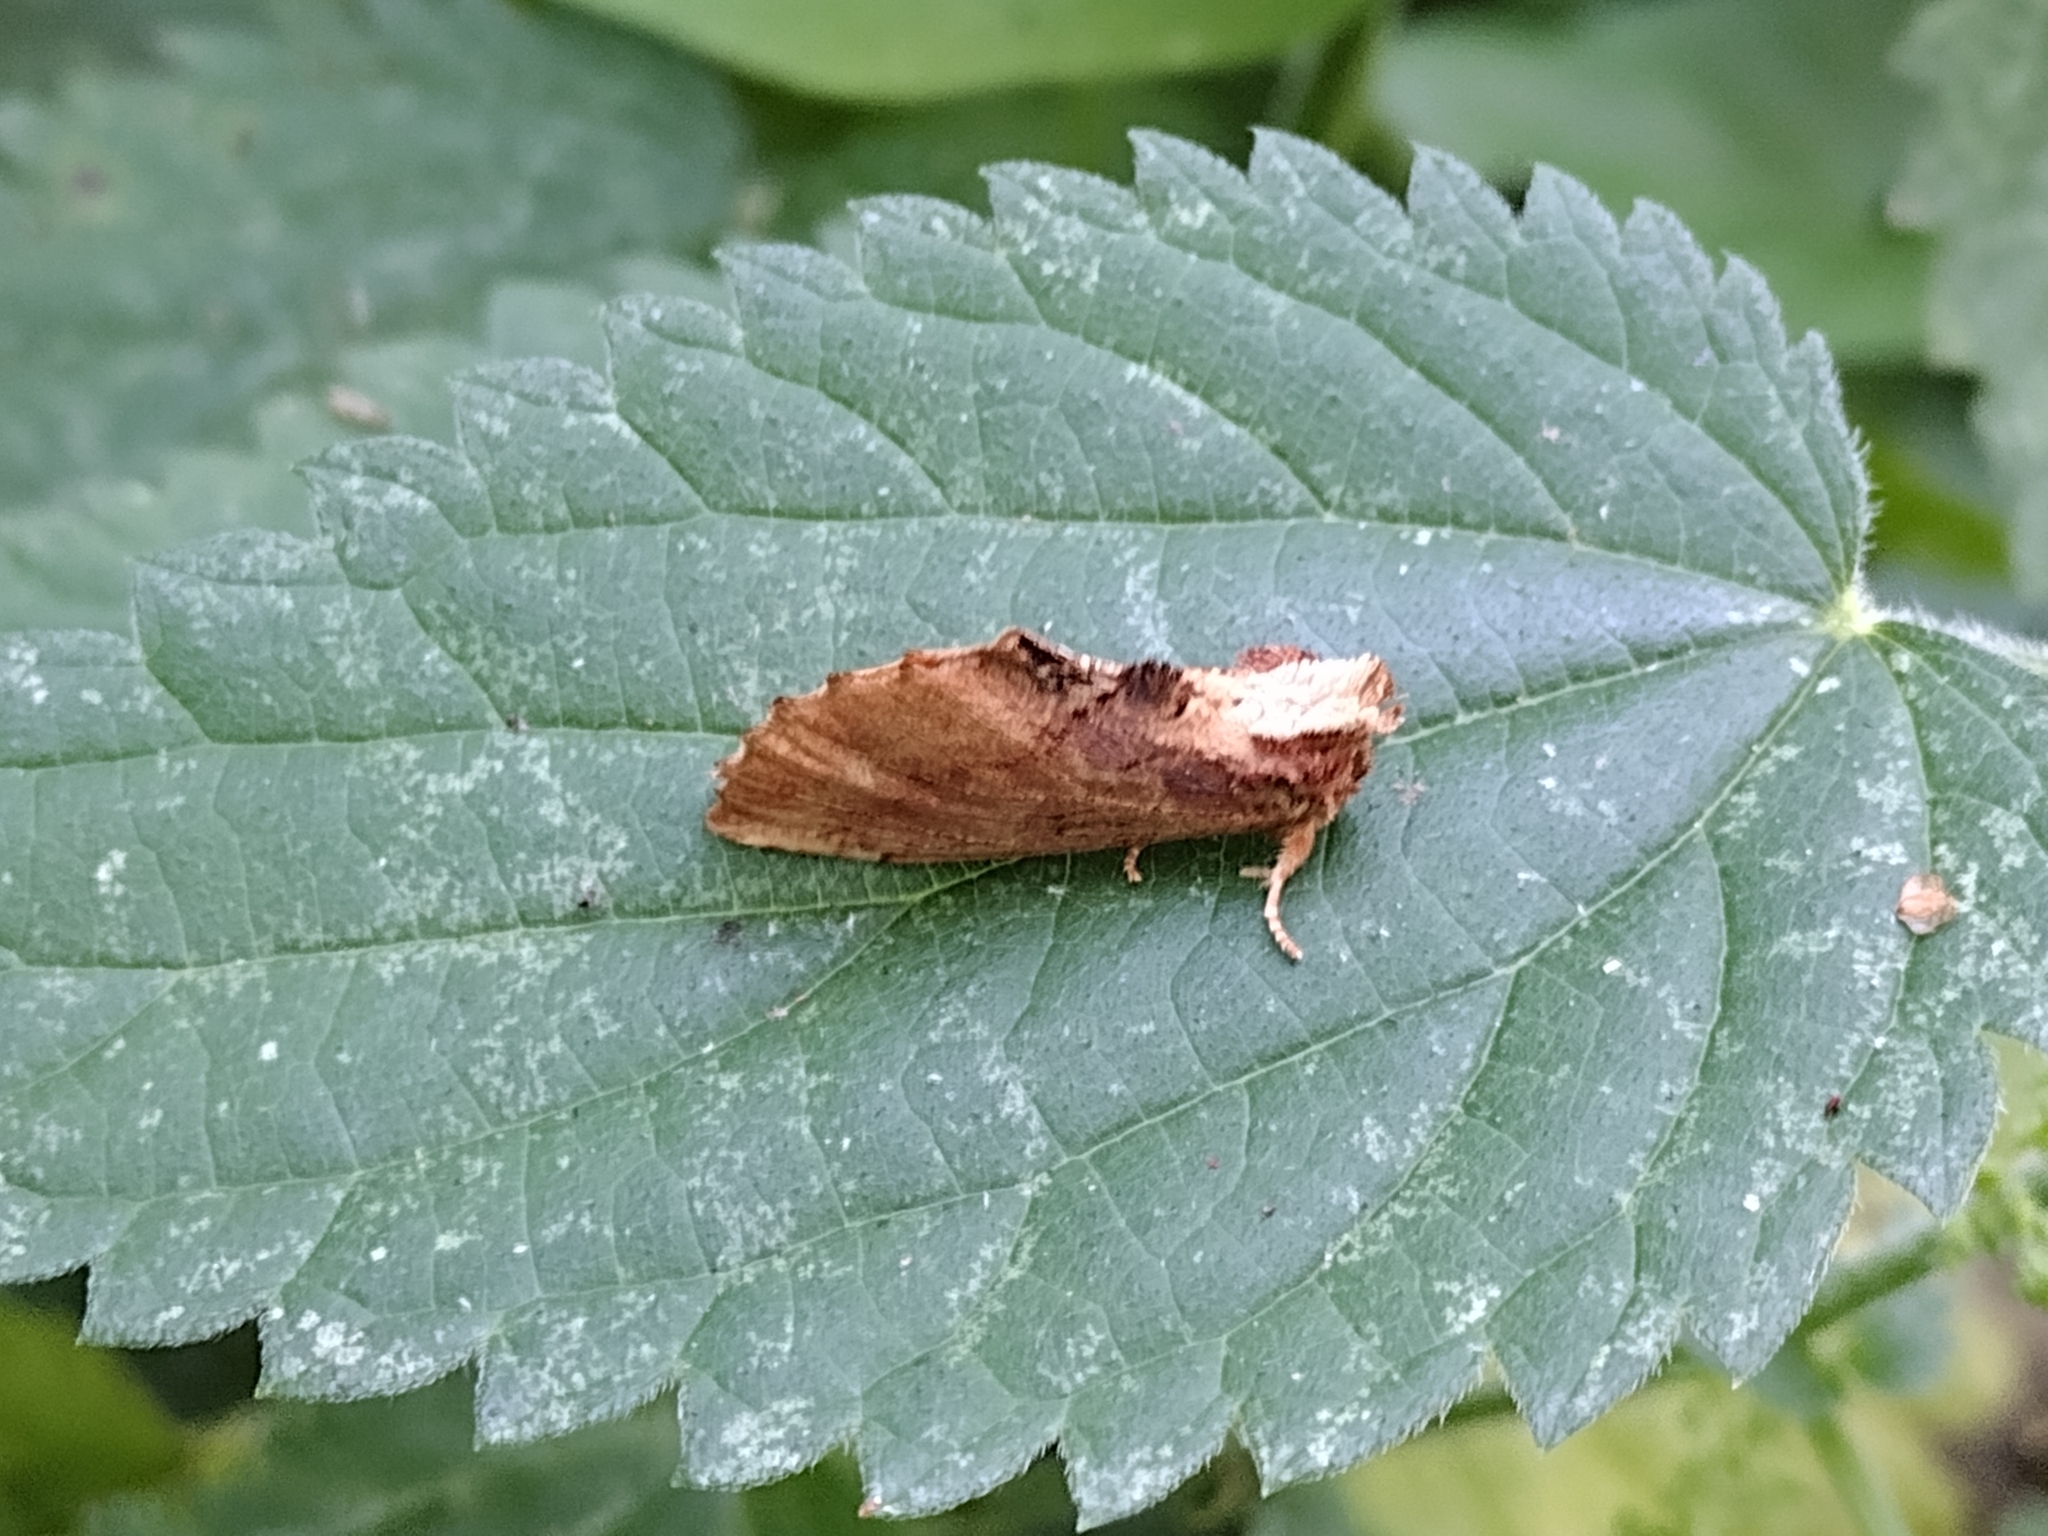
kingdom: Animalia
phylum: Arthropoda
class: Insecta
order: Lepidoptera
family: Notodontidae
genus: Ptilodon
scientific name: Ptilodon capucina
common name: Coxcomb prominent
